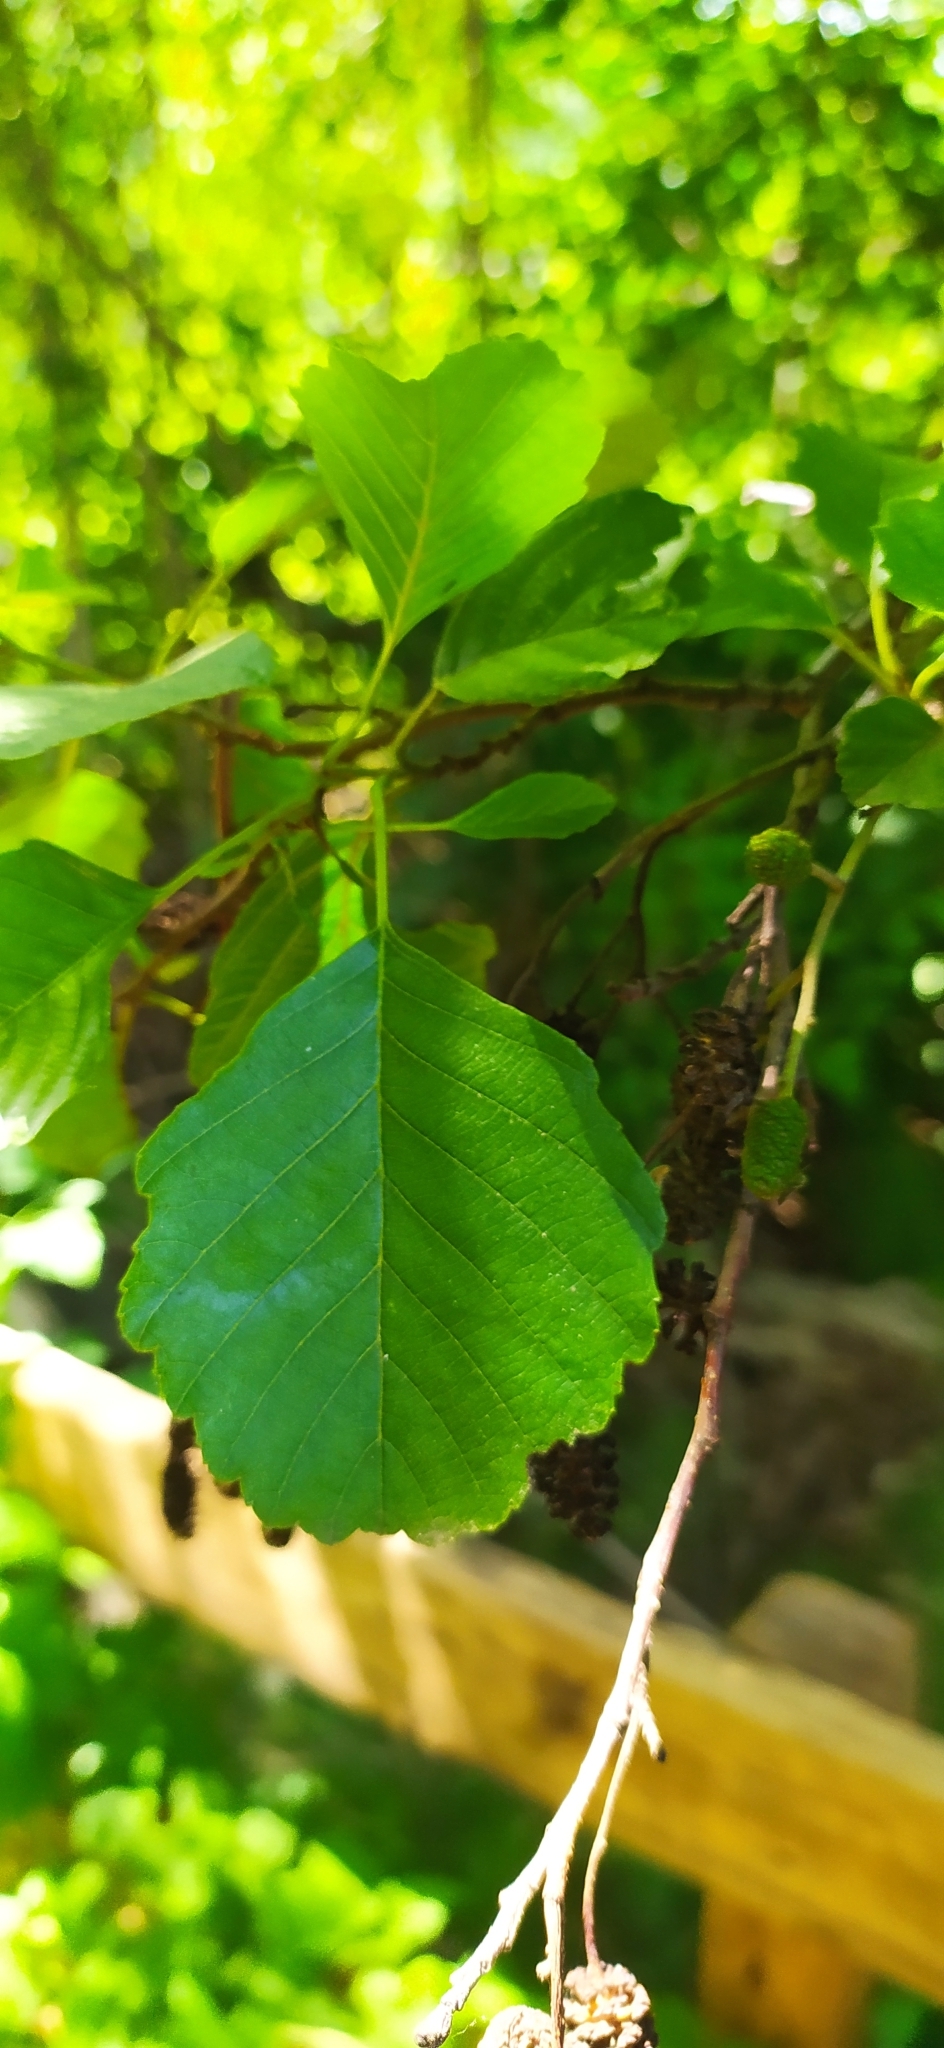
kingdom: Plantae
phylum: Tracheophyta
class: Magnoliopsida
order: Fagales
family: Betulaceae
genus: Alnus
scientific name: Alnus glutinosa
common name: Black alder
